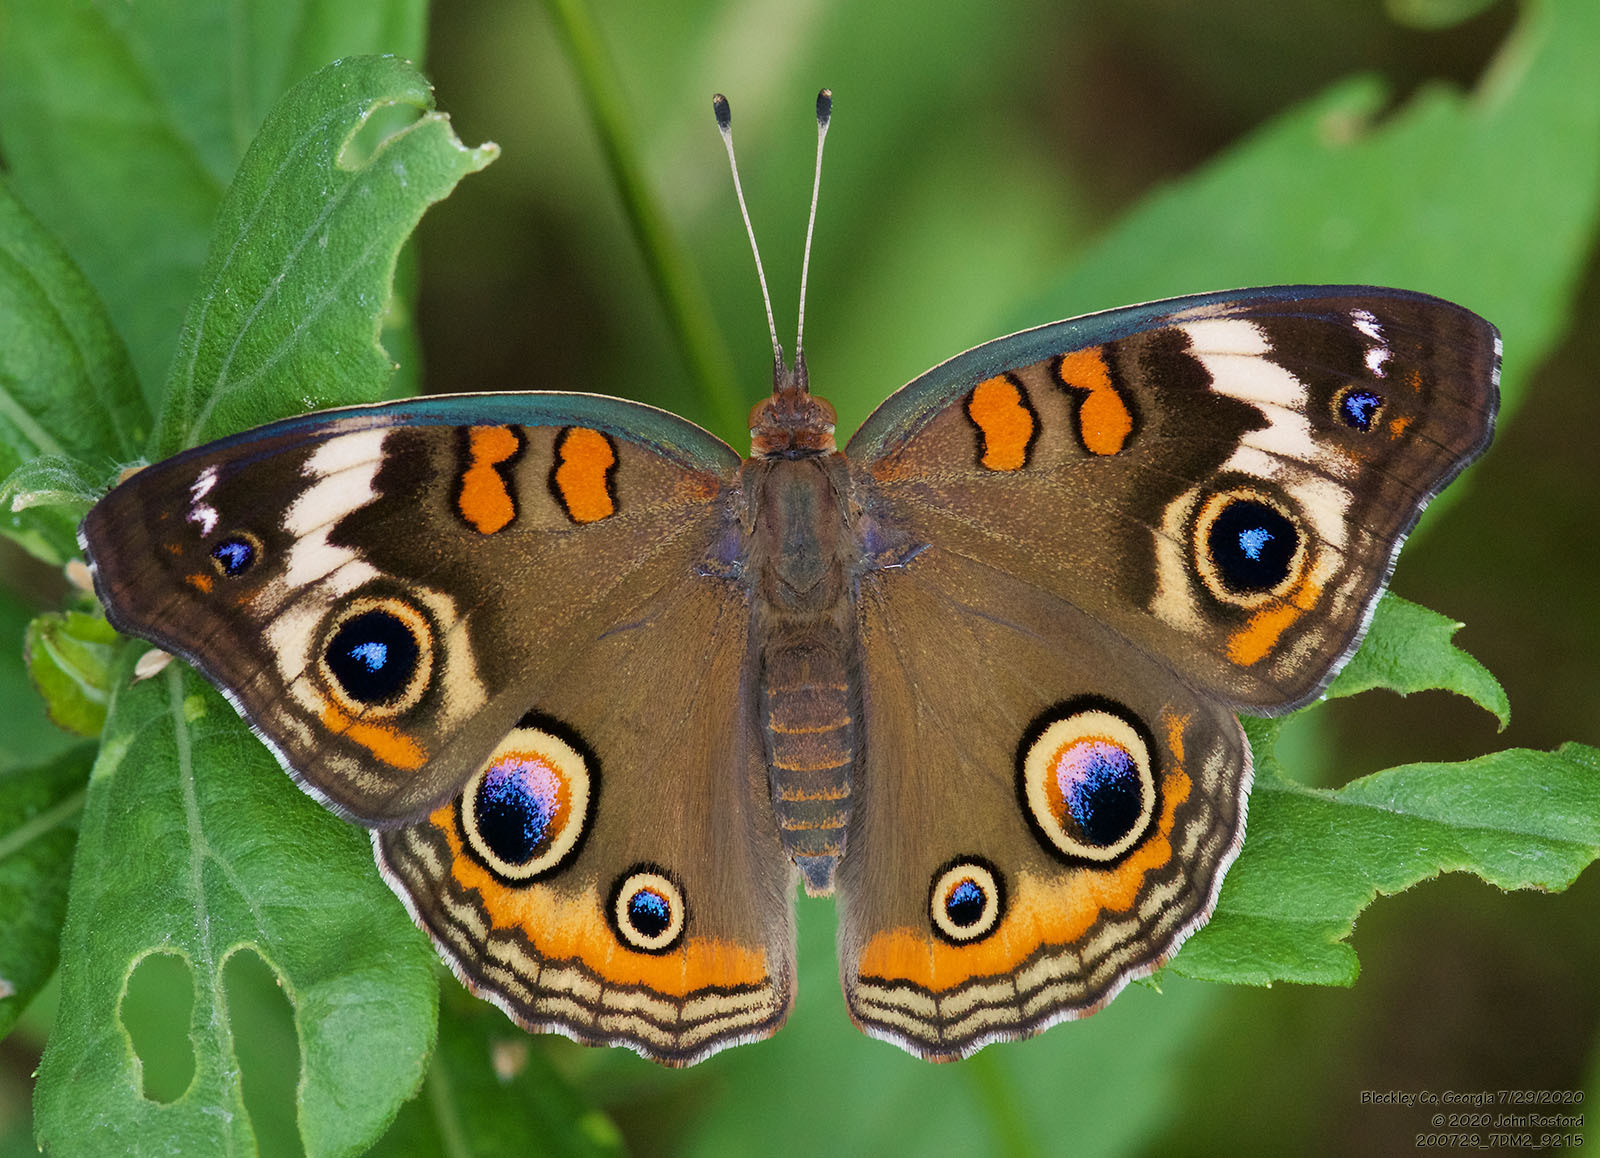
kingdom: Animalia
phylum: Arthropoda
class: Insecta
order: Lepidoptera
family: Nymphalidae
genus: Junonia
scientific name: Junonia coenia
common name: Common buckeye
